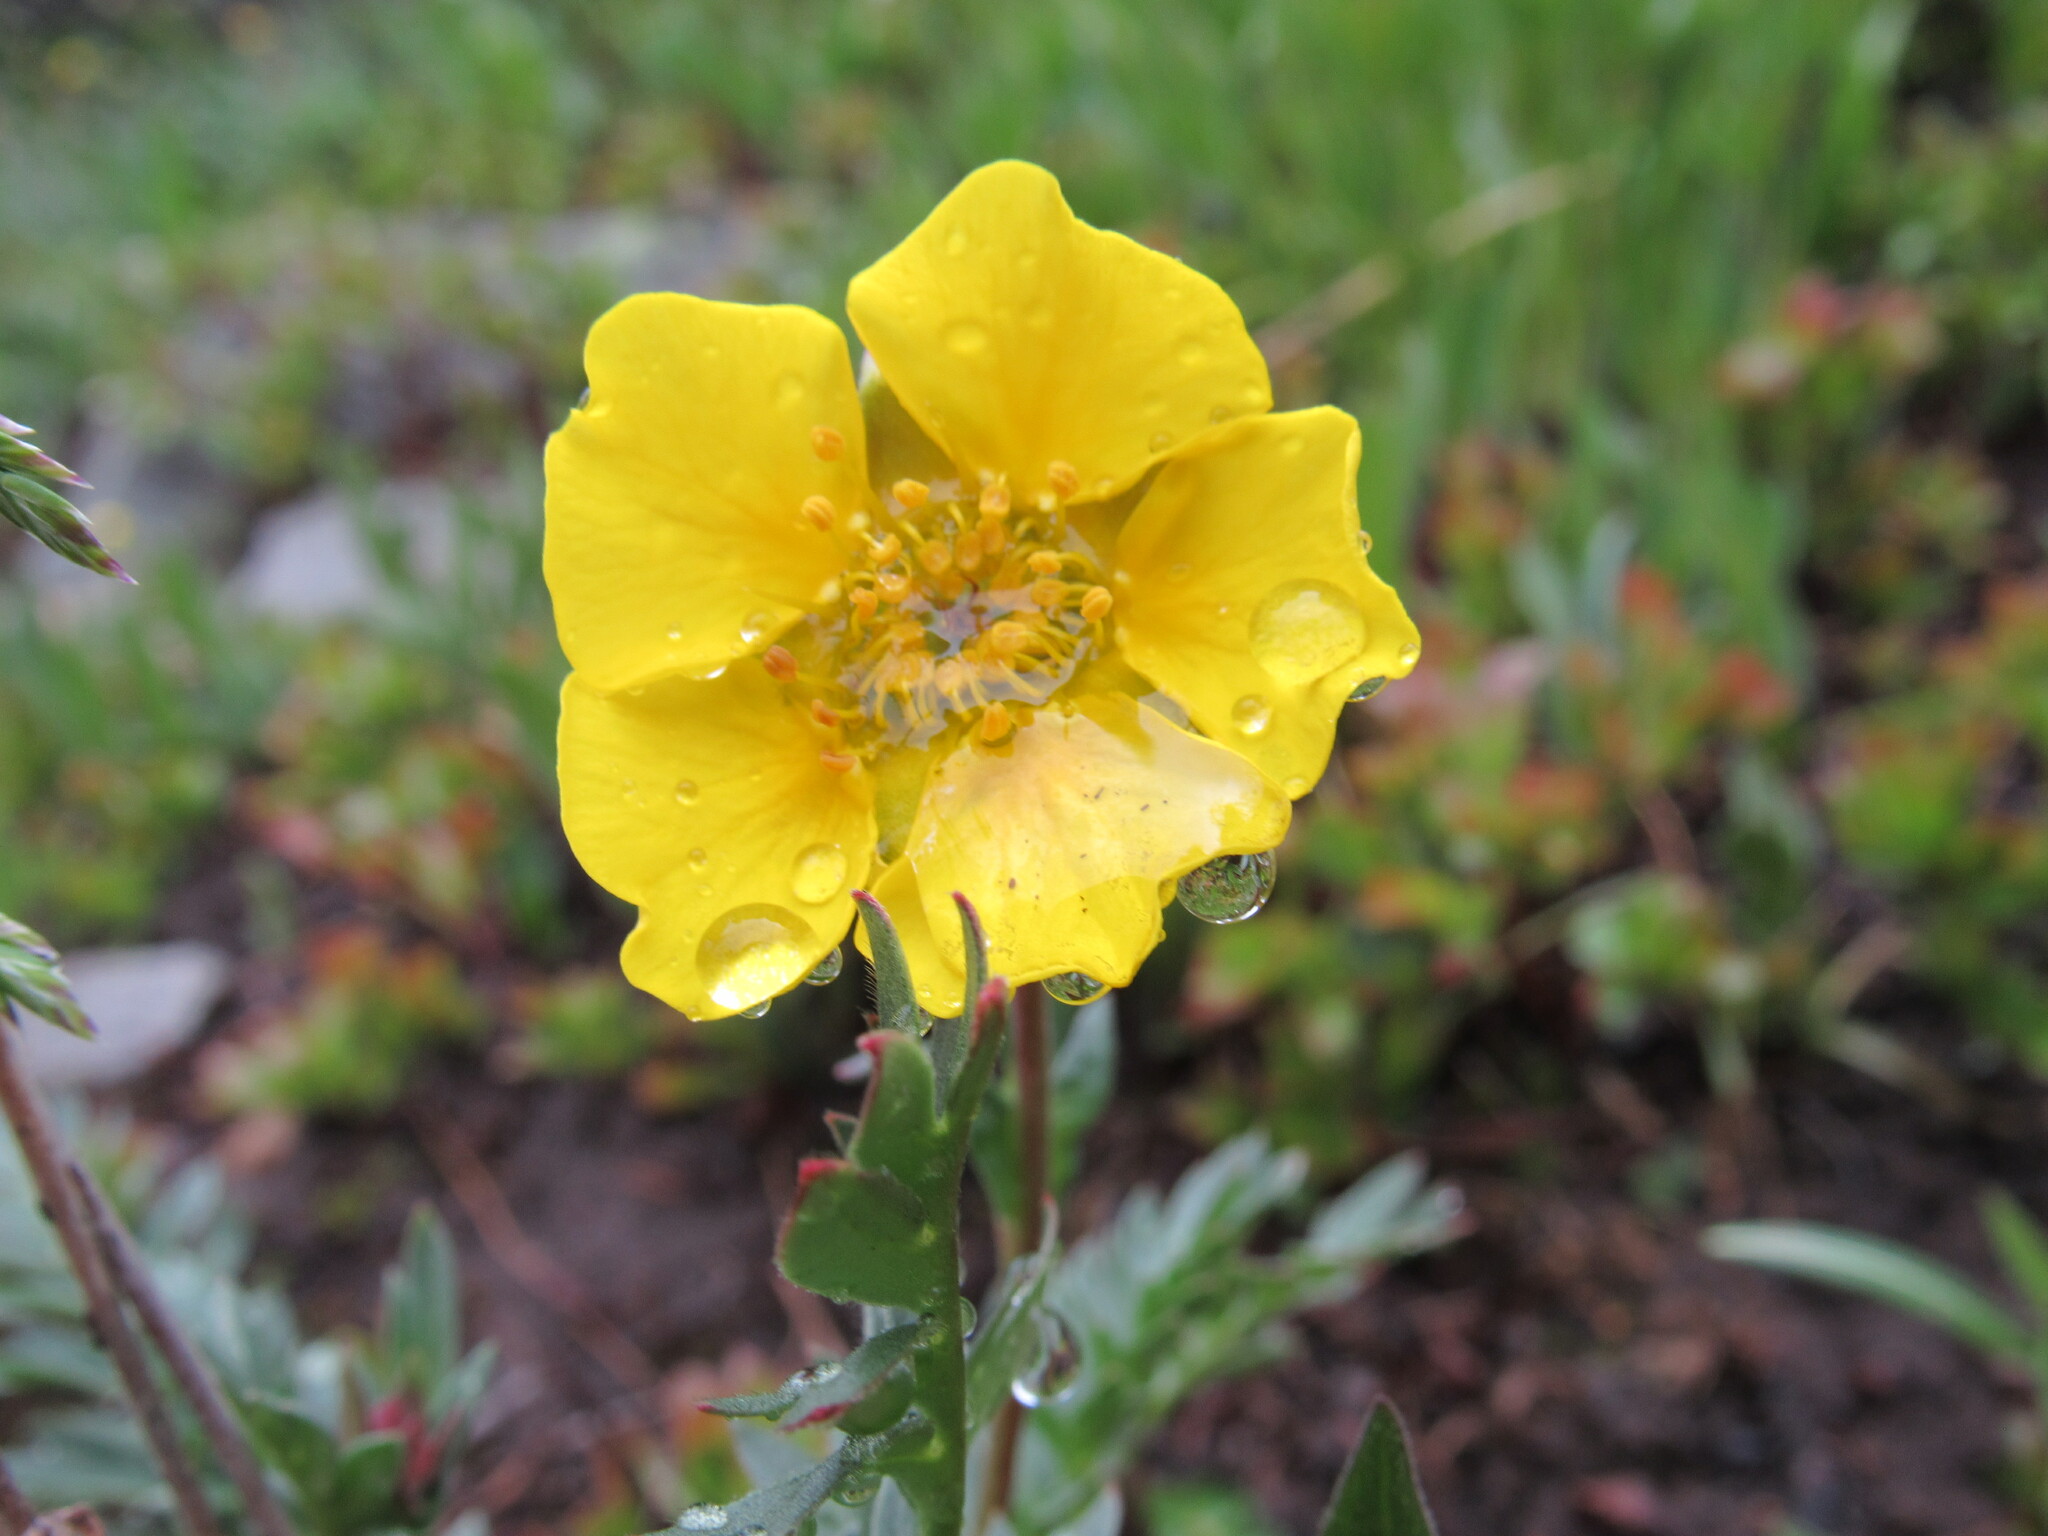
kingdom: Plantae
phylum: Tracheophyta
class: Magnoliopsida
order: Rosales
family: Rosaceae
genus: Geum
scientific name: Geum rossii
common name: Alpine avens
